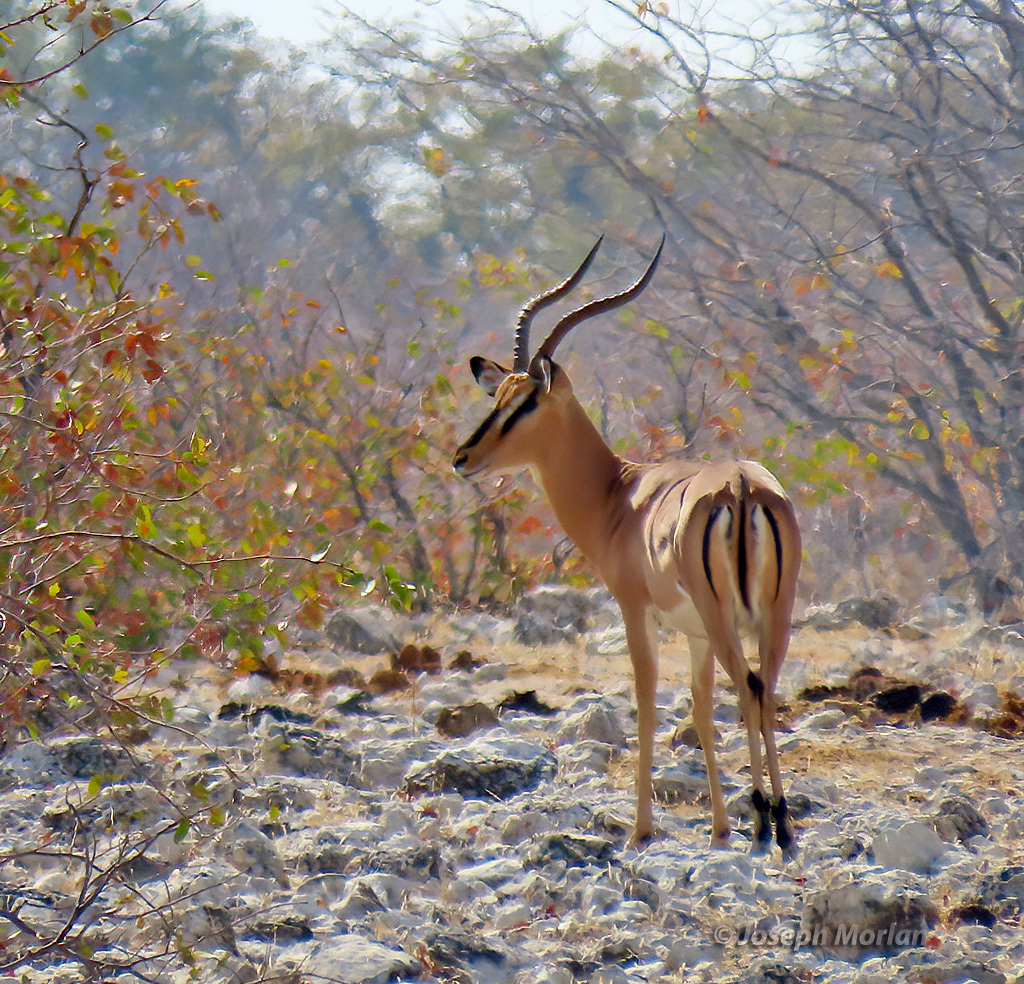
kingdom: Animalia
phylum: Chordata
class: Mammalia
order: Artiodactyla
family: Bovidae
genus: Aepyceros
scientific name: Aepyceros melampus
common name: Impala
